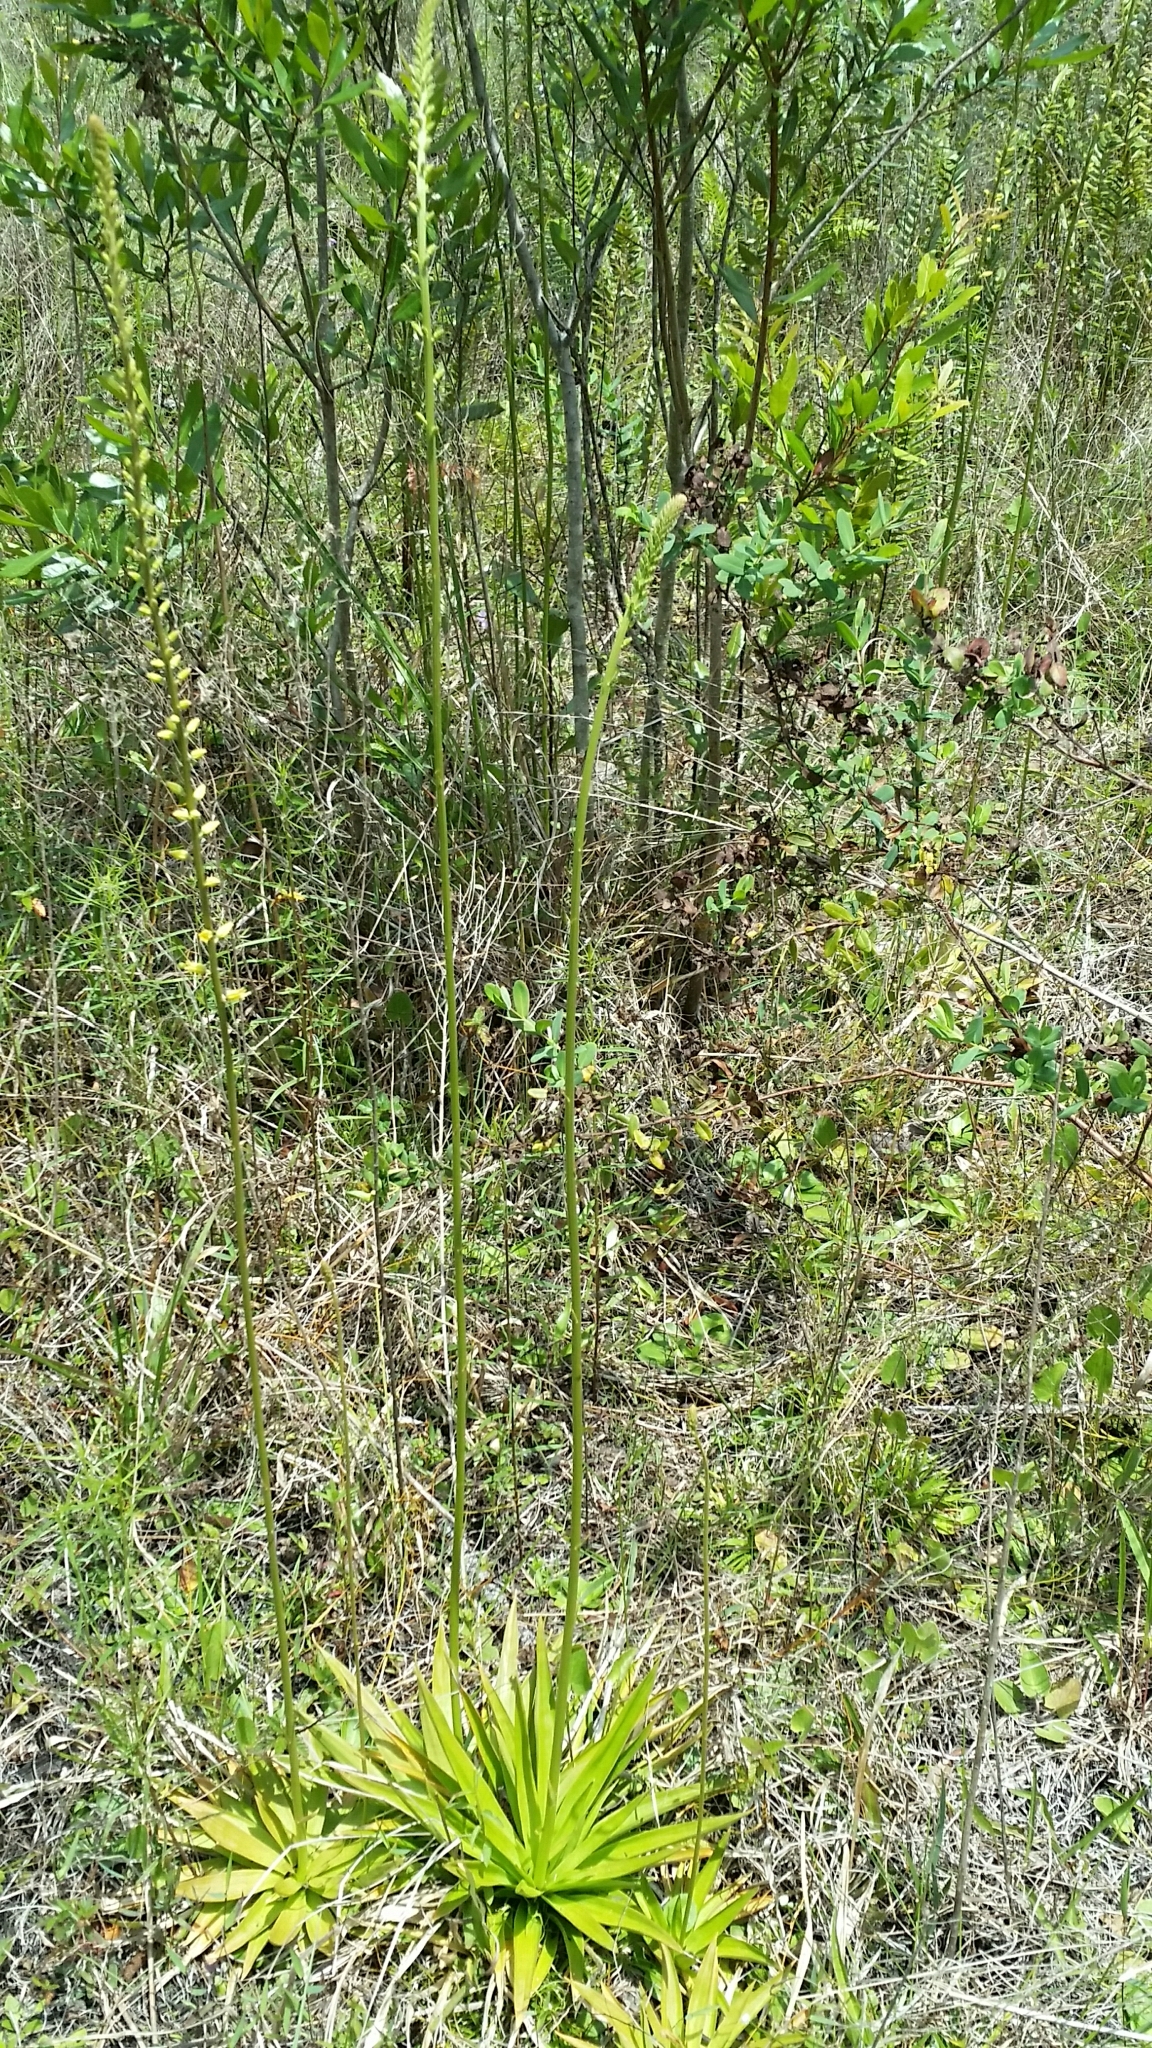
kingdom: Plantae
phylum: Tracheophyta
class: Liliopsida
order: Dioscoreales
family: Nartheciaceae
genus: Aletris
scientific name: Aletris lutea
